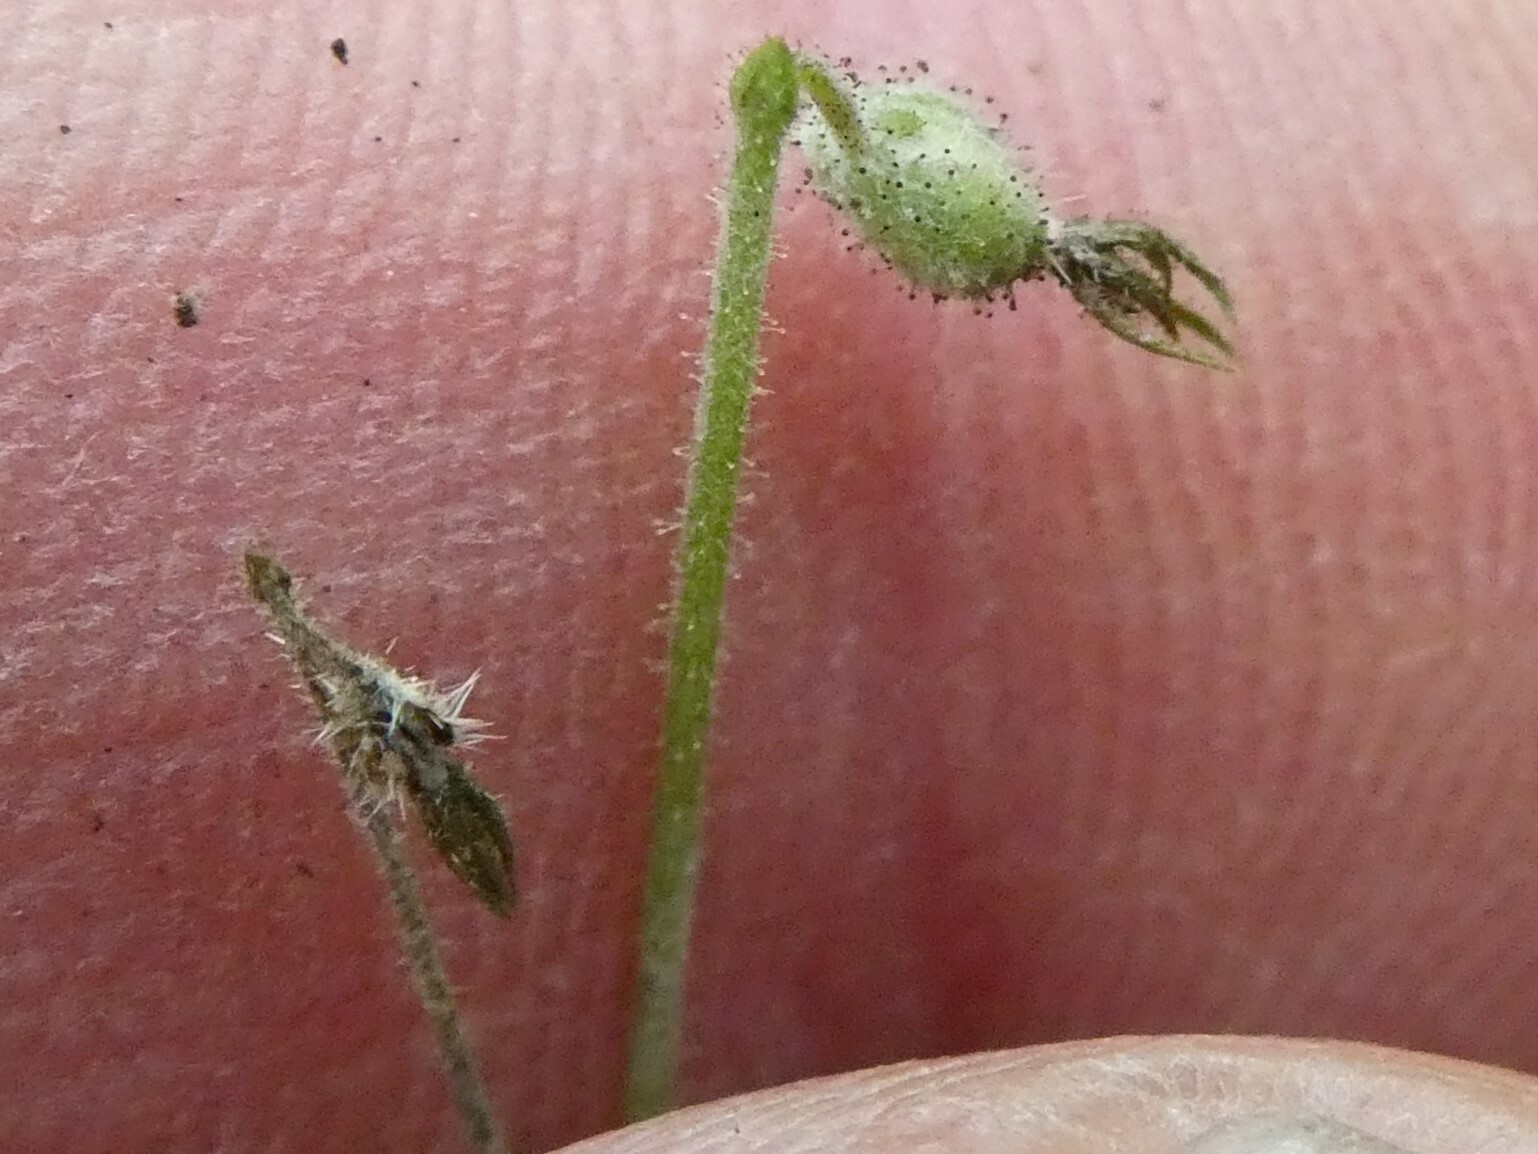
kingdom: Plantae
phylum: Tracheophyta
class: Magnoliopsida
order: Dipsacales
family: Caprifoliaceae
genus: Linnaea
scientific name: Linnaea borealis
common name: Twinflower
